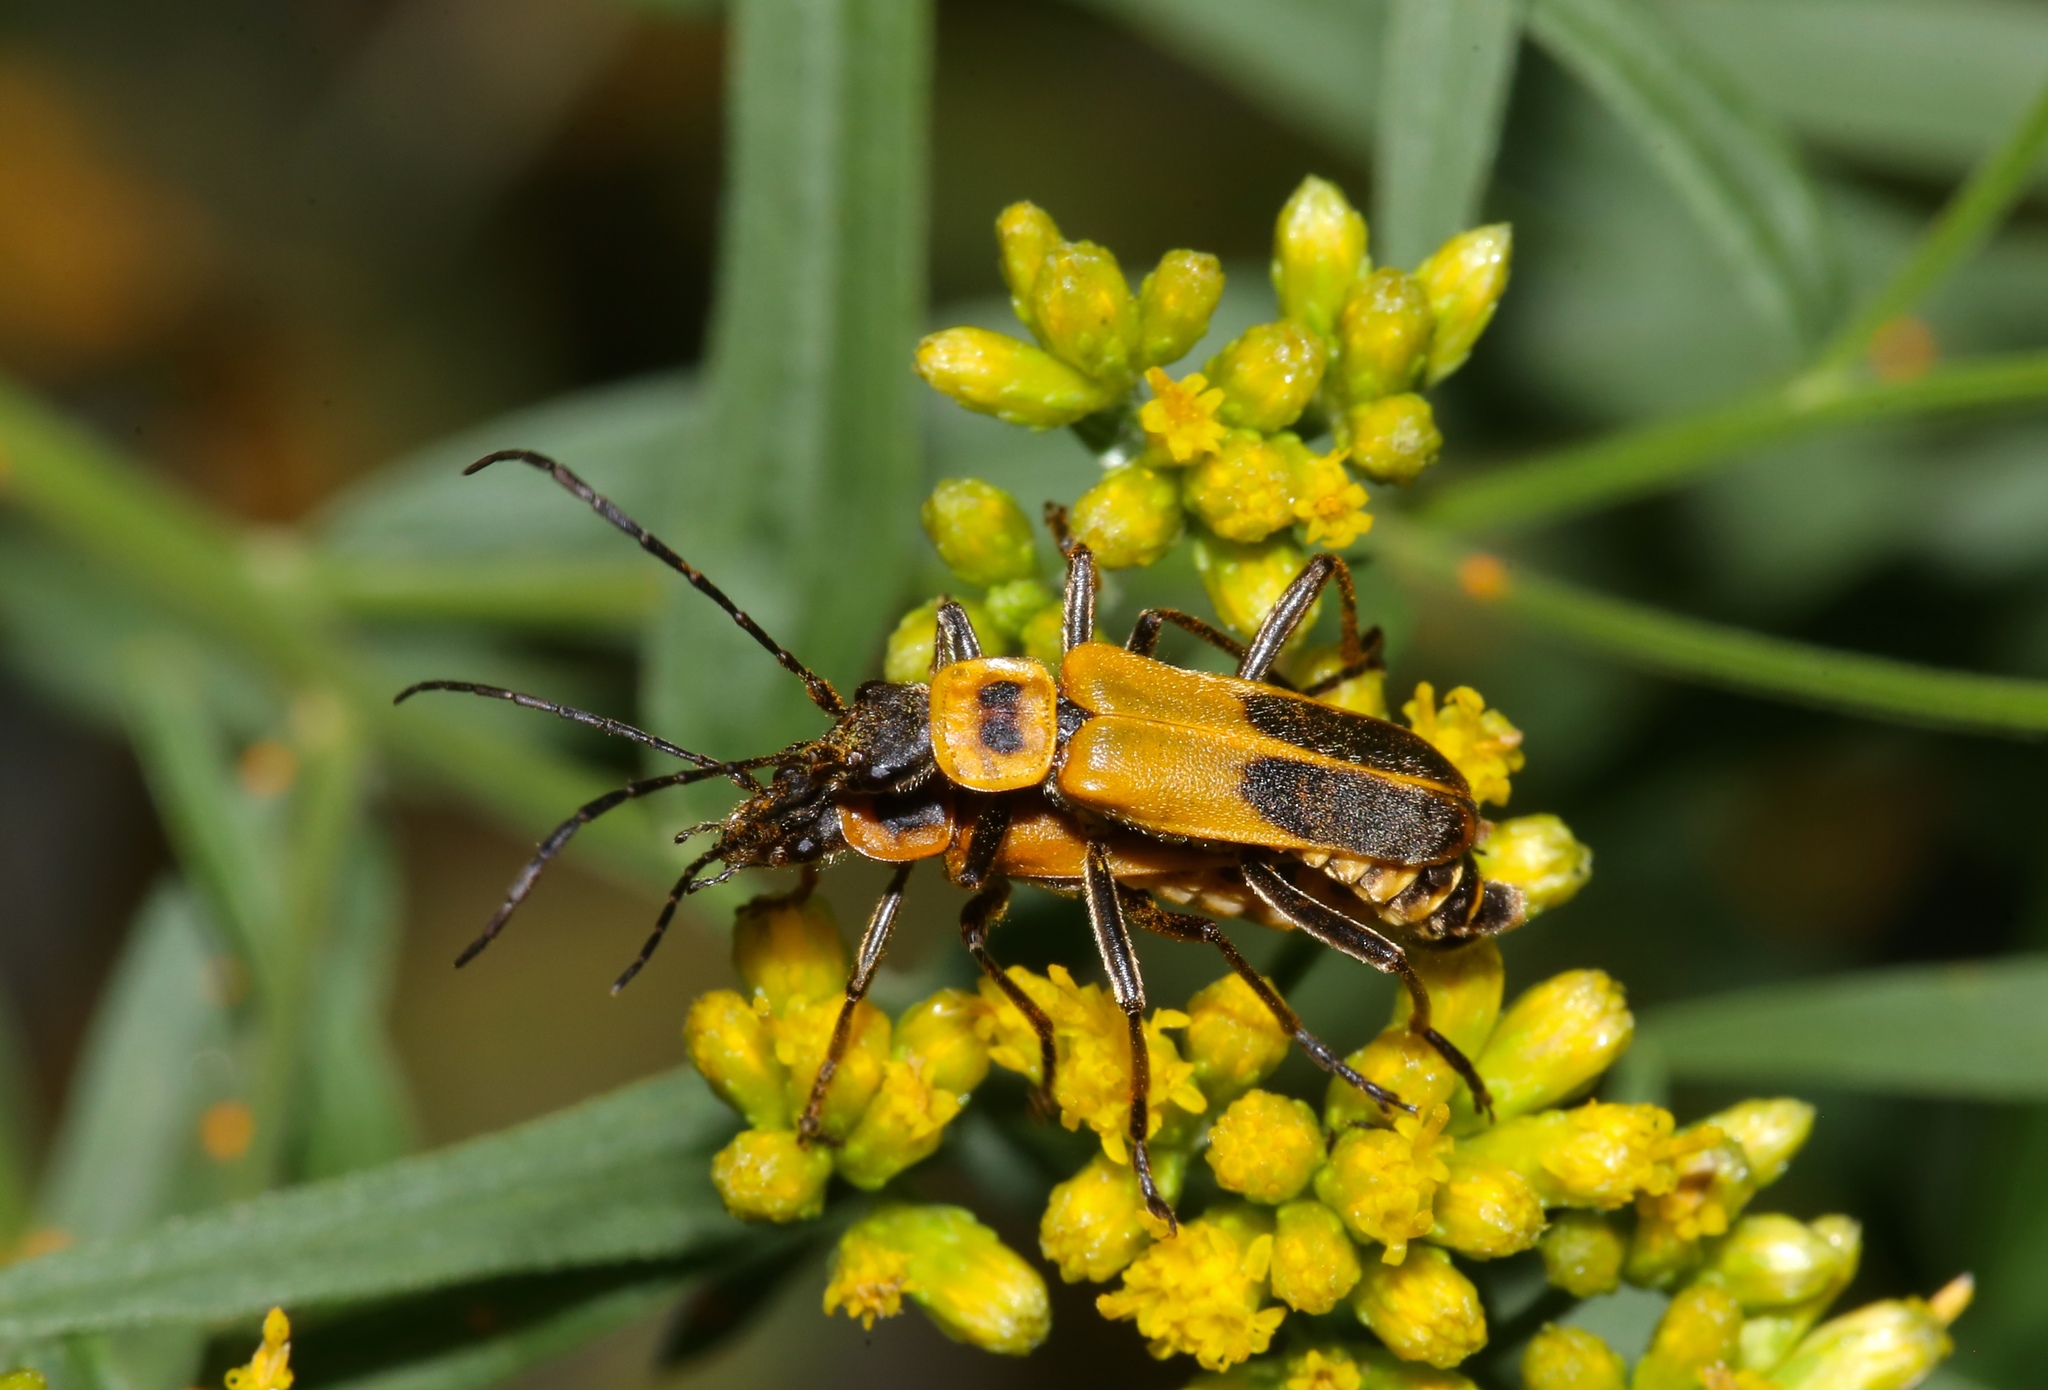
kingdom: Animalia
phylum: Arthropoda
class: Insecta
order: Coleoptera
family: Cantharidae
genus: Chauliognathus
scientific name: Chauliognathus pensylvanicus
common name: Goldenrod soldier beetle
